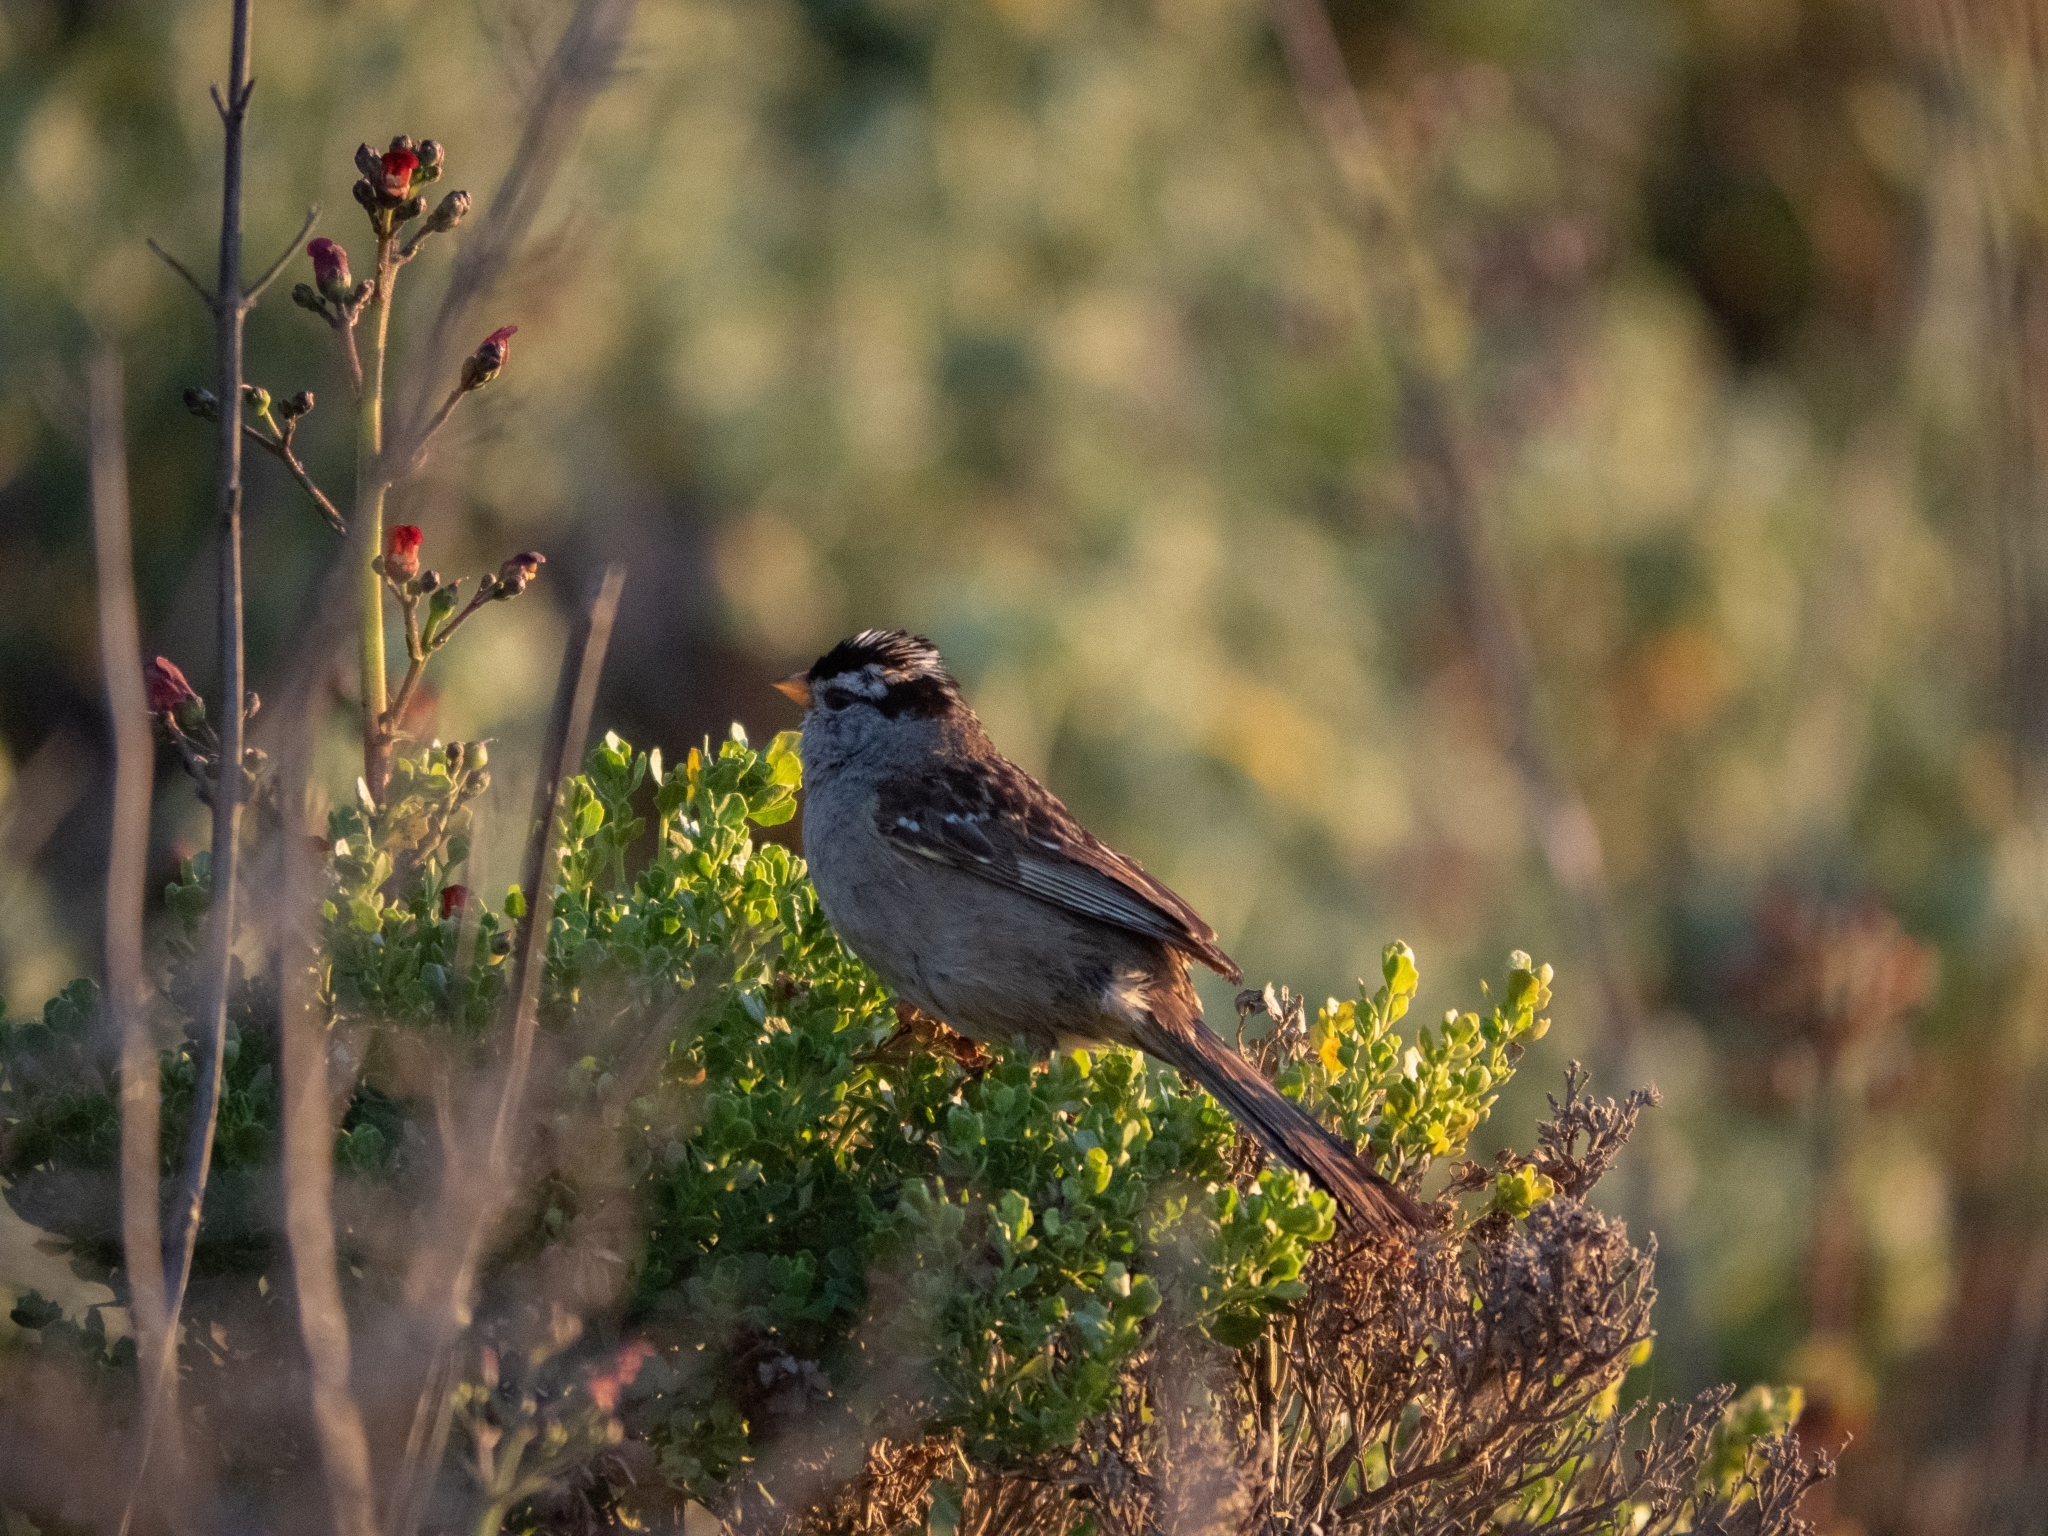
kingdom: Animalia
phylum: Chordata
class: Aves
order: Passeriformes
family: Passerellidae
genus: Zonotrichia
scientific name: Zonotrichia leucophrys
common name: White-crowned sparrow
